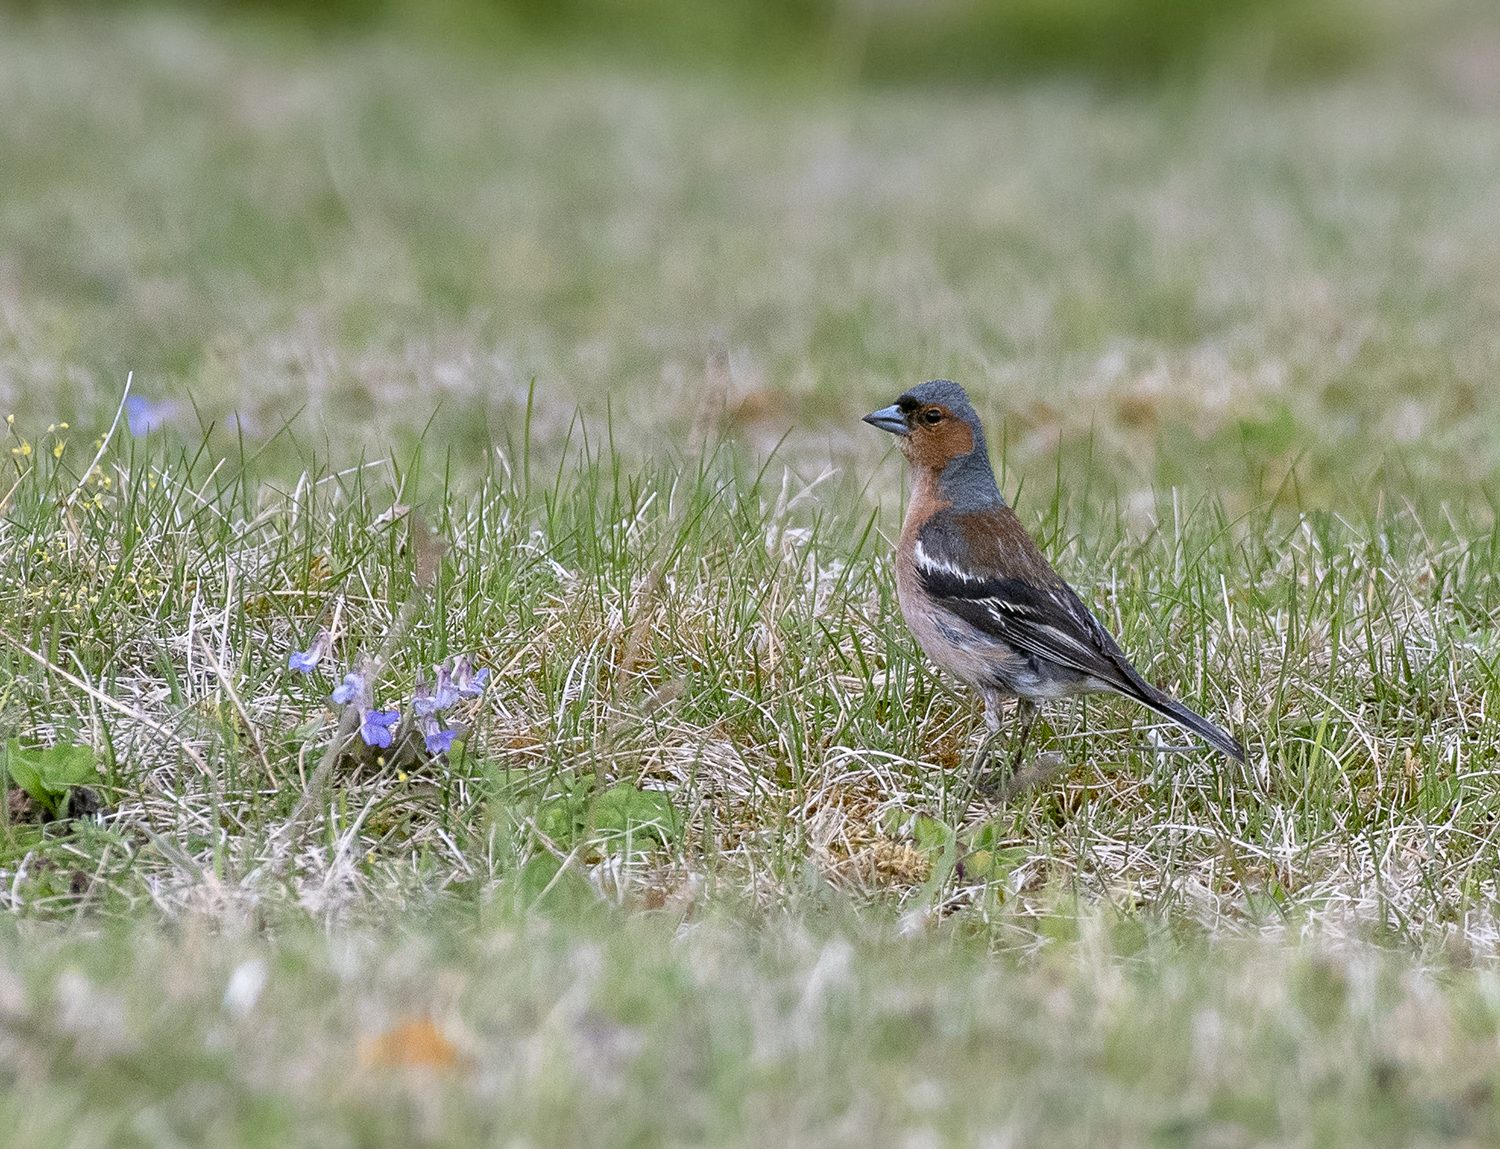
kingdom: Animalia
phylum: Chordata
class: Aves
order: Passeriformes
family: Fringillidae
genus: Fringilla
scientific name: Fringilla coelebs
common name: Common chaffinch
